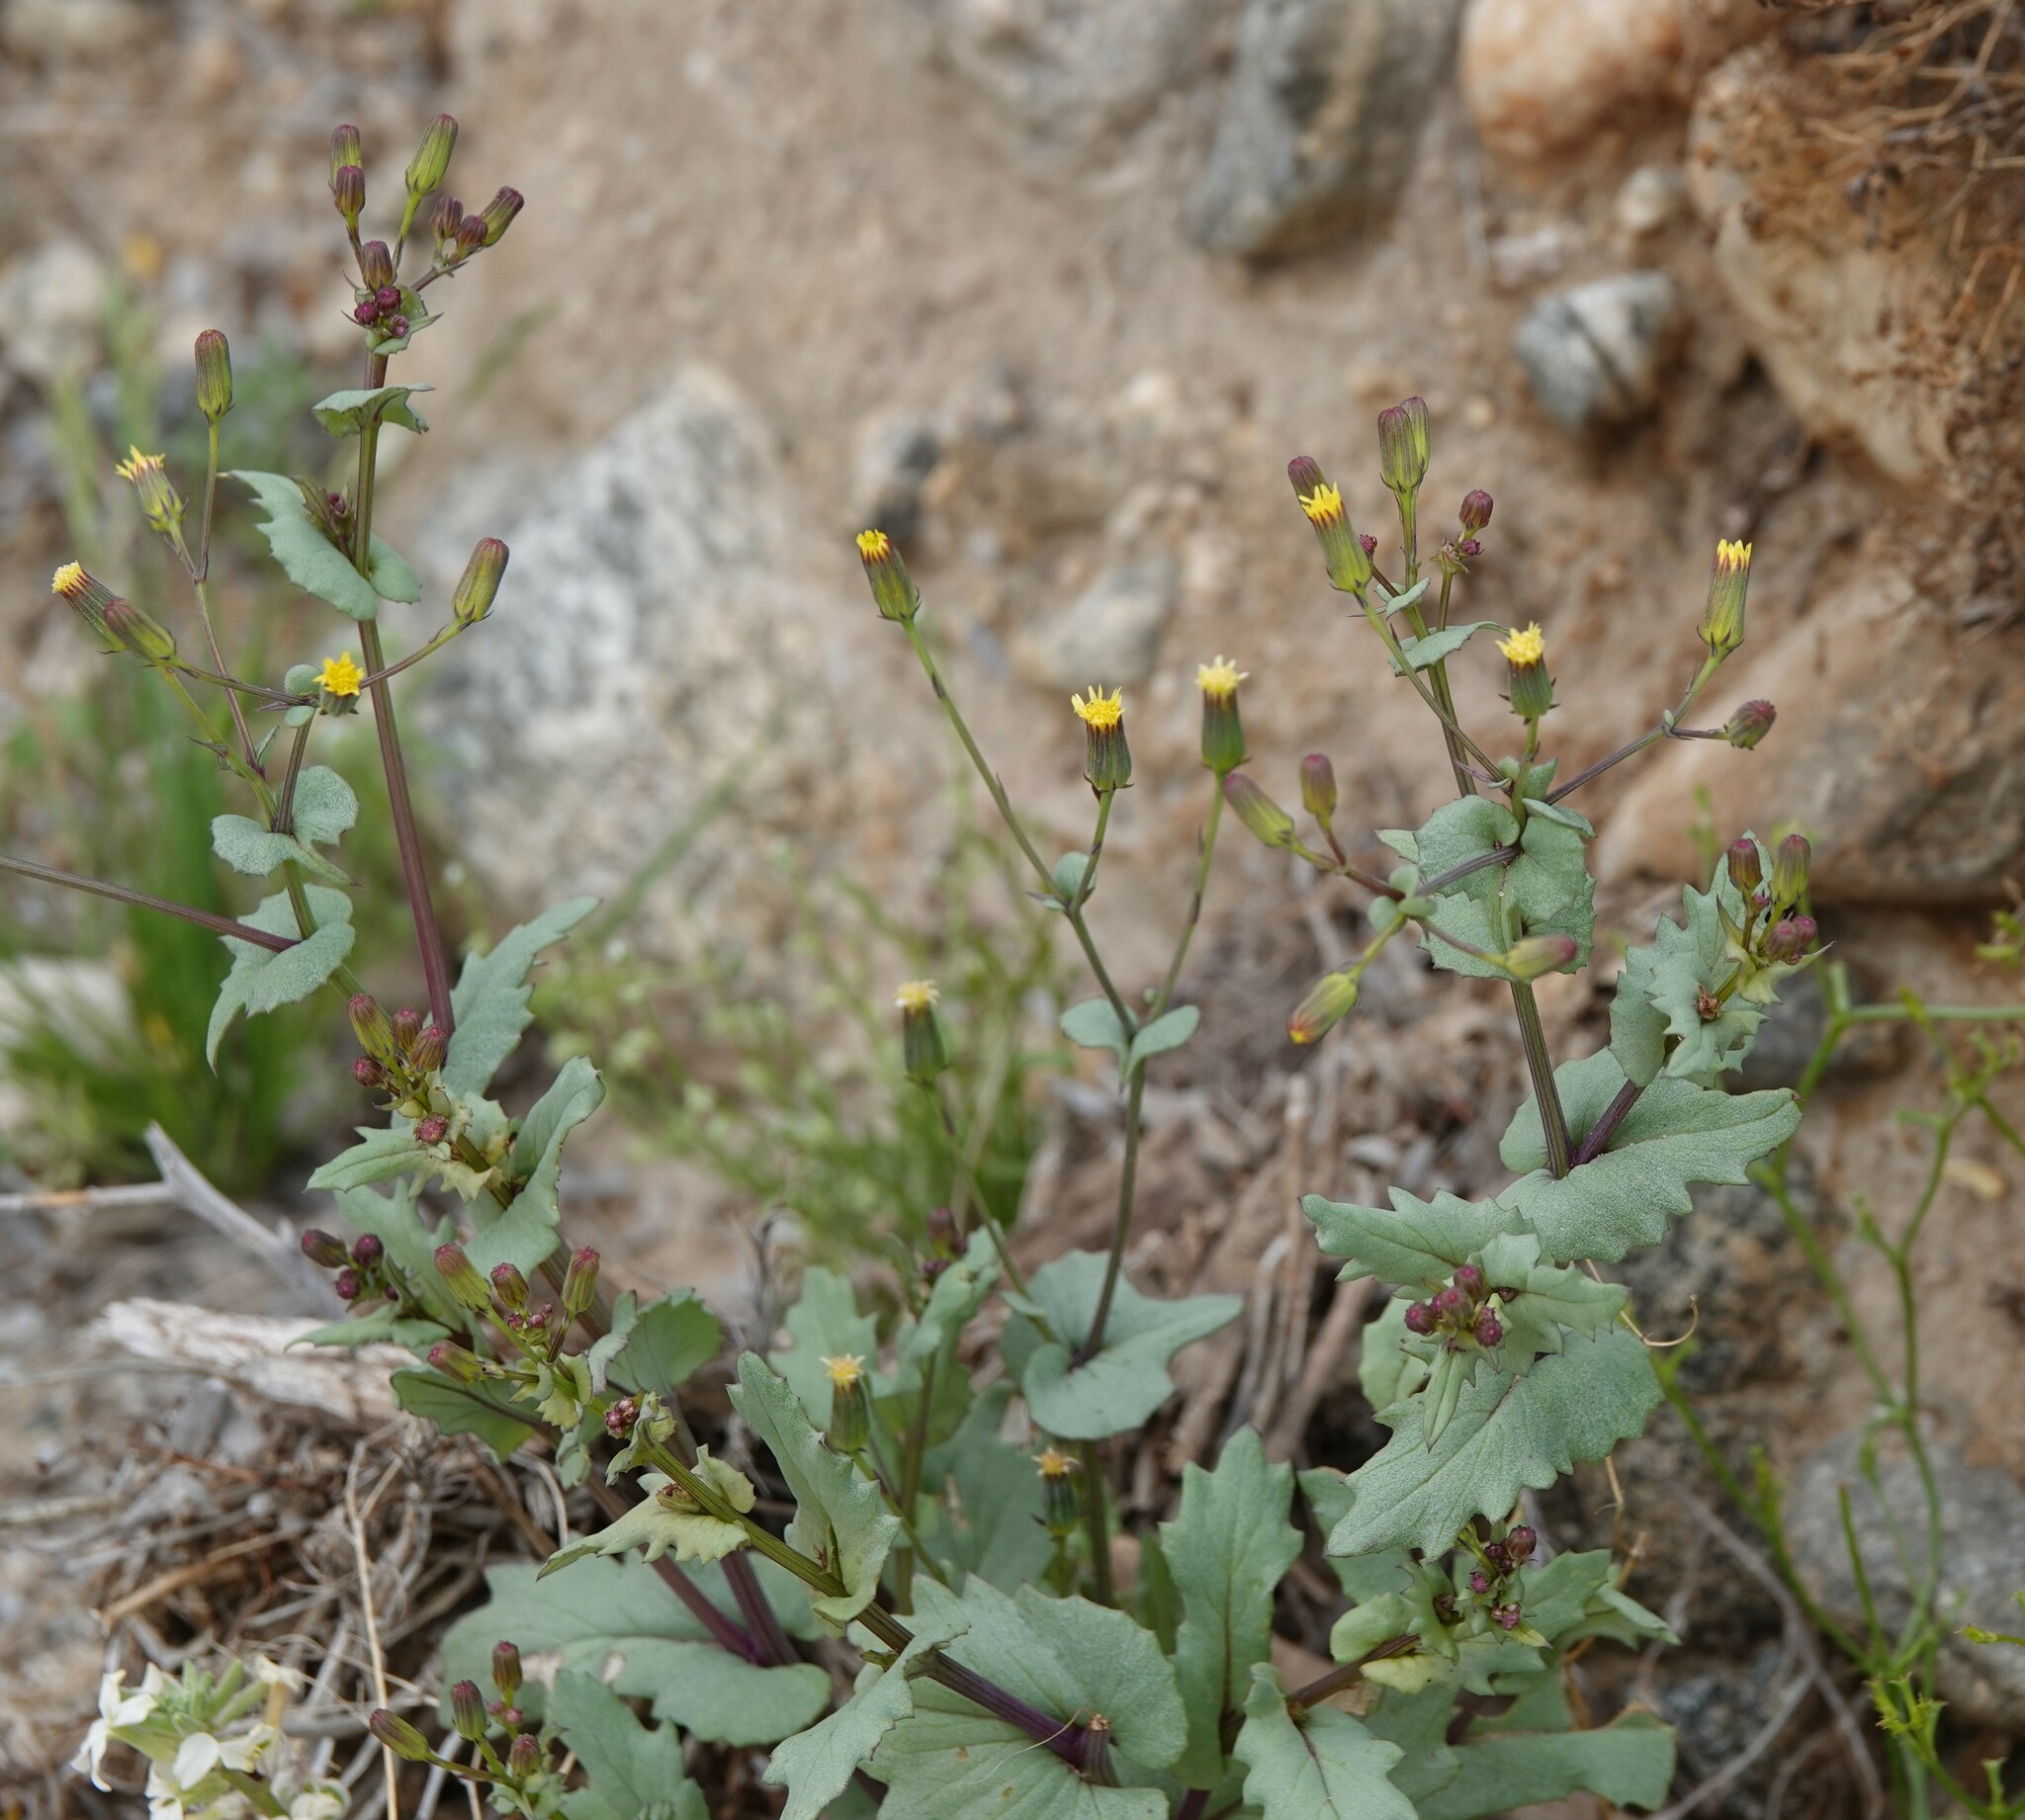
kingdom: Plantae
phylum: Tracheophyta
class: Magnoliopsida
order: Asterales
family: Asteraceae
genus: Senecio
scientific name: Senecio mohavensis
